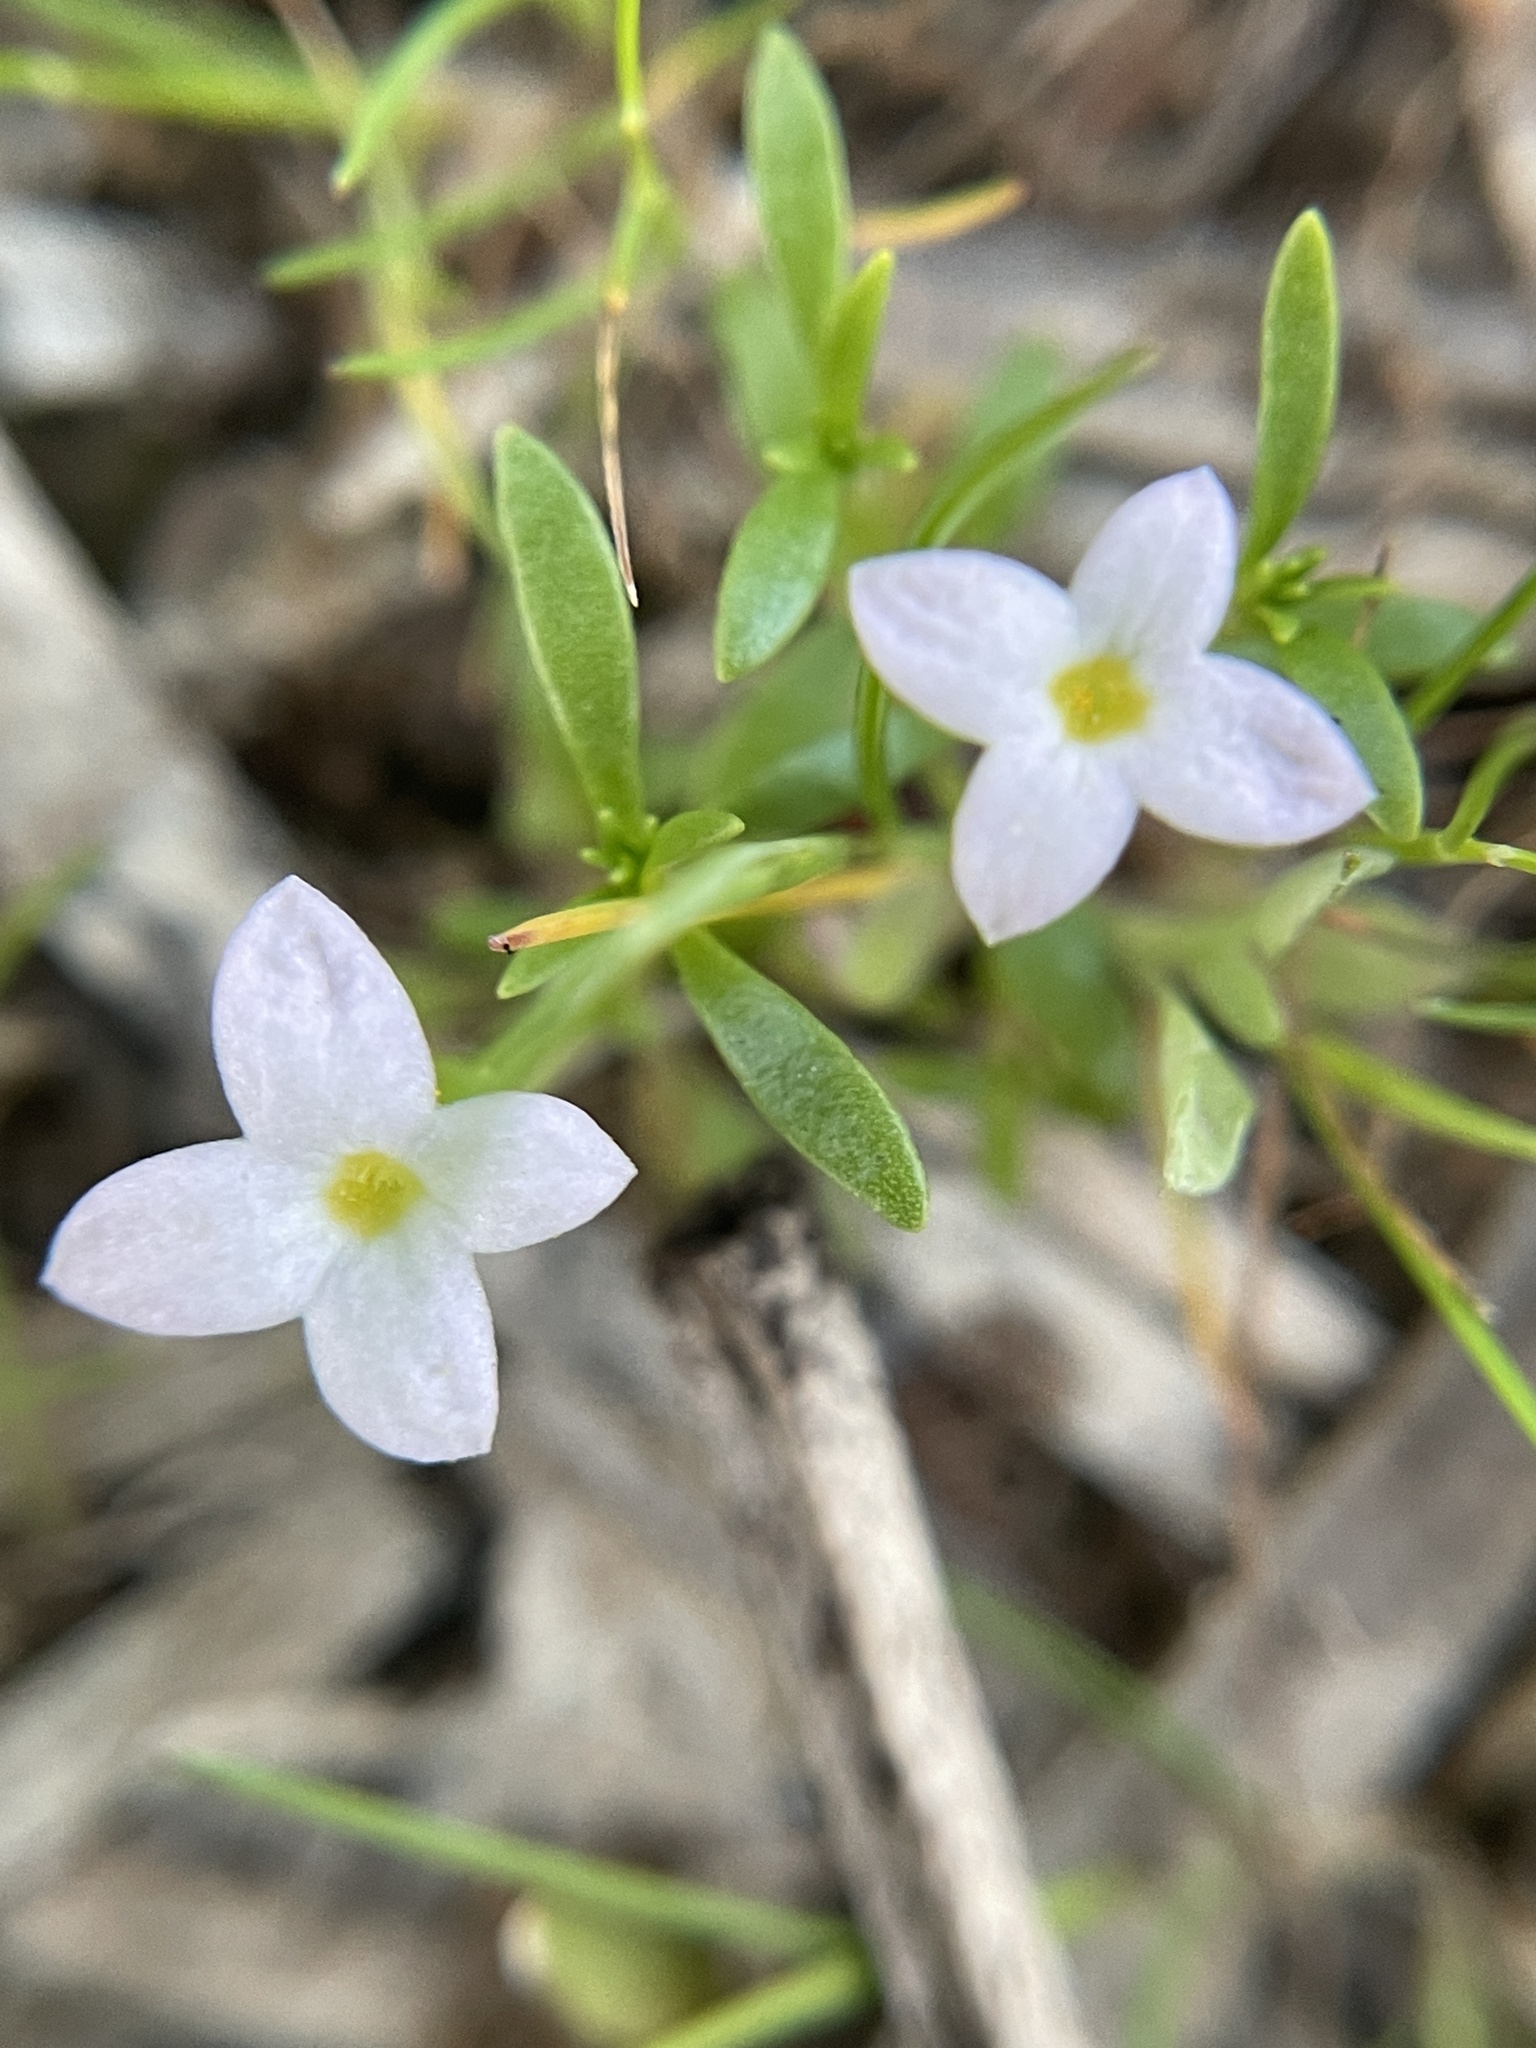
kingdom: Plantae
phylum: Tracheophyta
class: Magnoliopsida
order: Gentianales
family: Rubiaceae
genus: Houstonia
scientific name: Houstonia rosea
